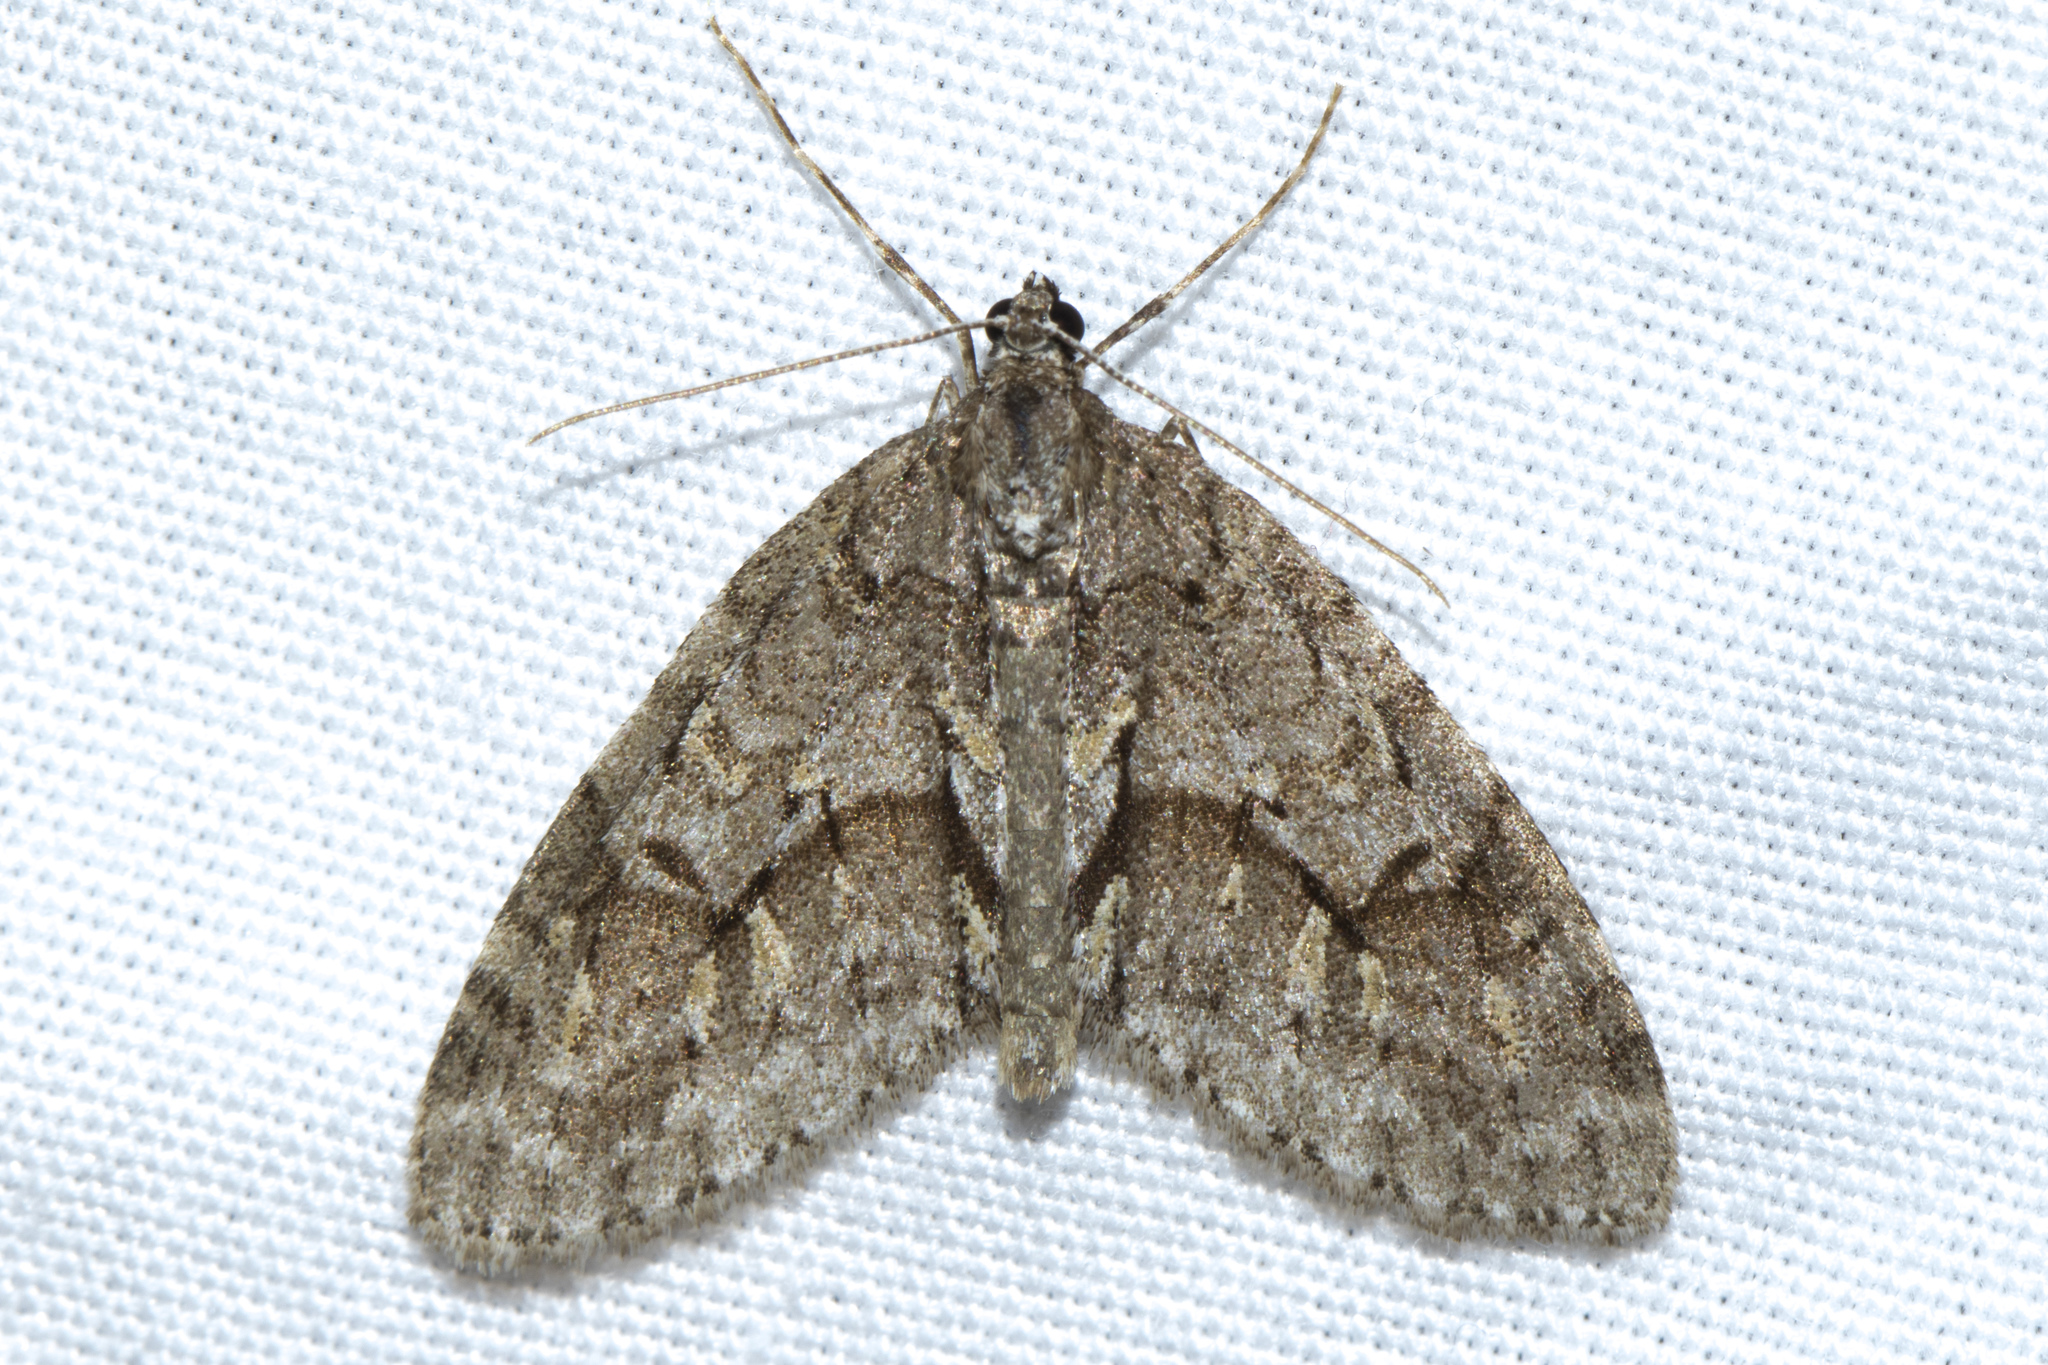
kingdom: Animalia
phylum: Arthropoda
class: Insecta
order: Lepidoptera
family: Geometridae
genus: Cladara
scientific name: Cladara limitaria
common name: Mottled gray carpet
